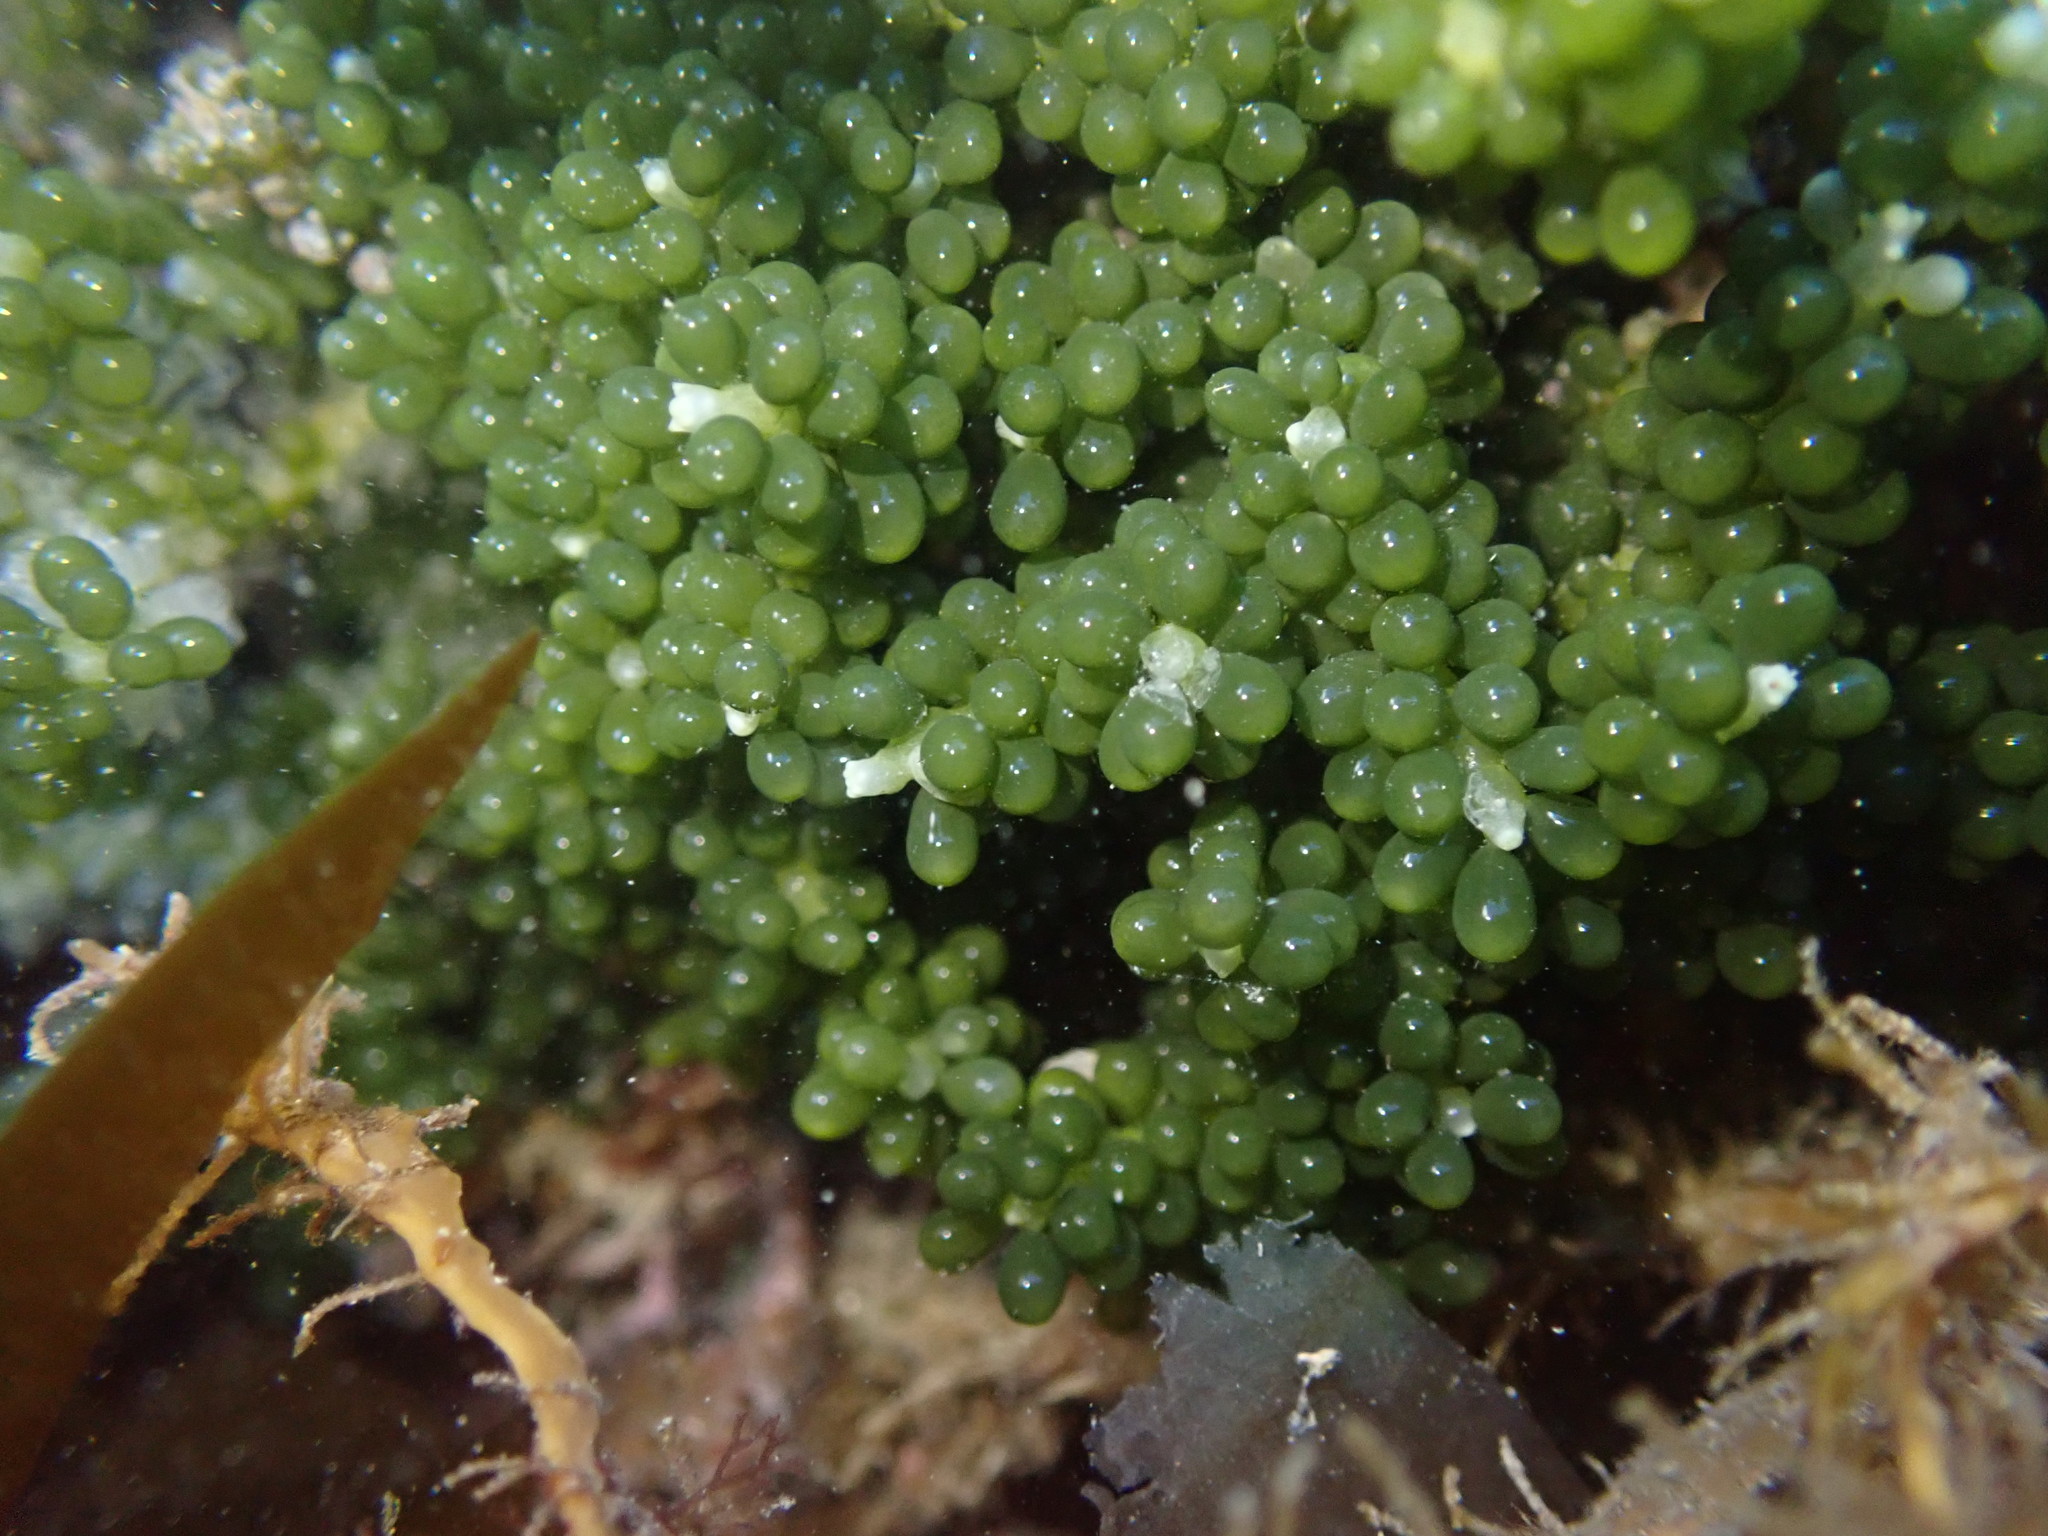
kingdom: Plantae
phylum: Chlorophyta
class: Ulvophyceae
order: Bryopsidales
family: Caulerpaceae
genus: Caulerpa
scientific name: Caulerpa geminata
